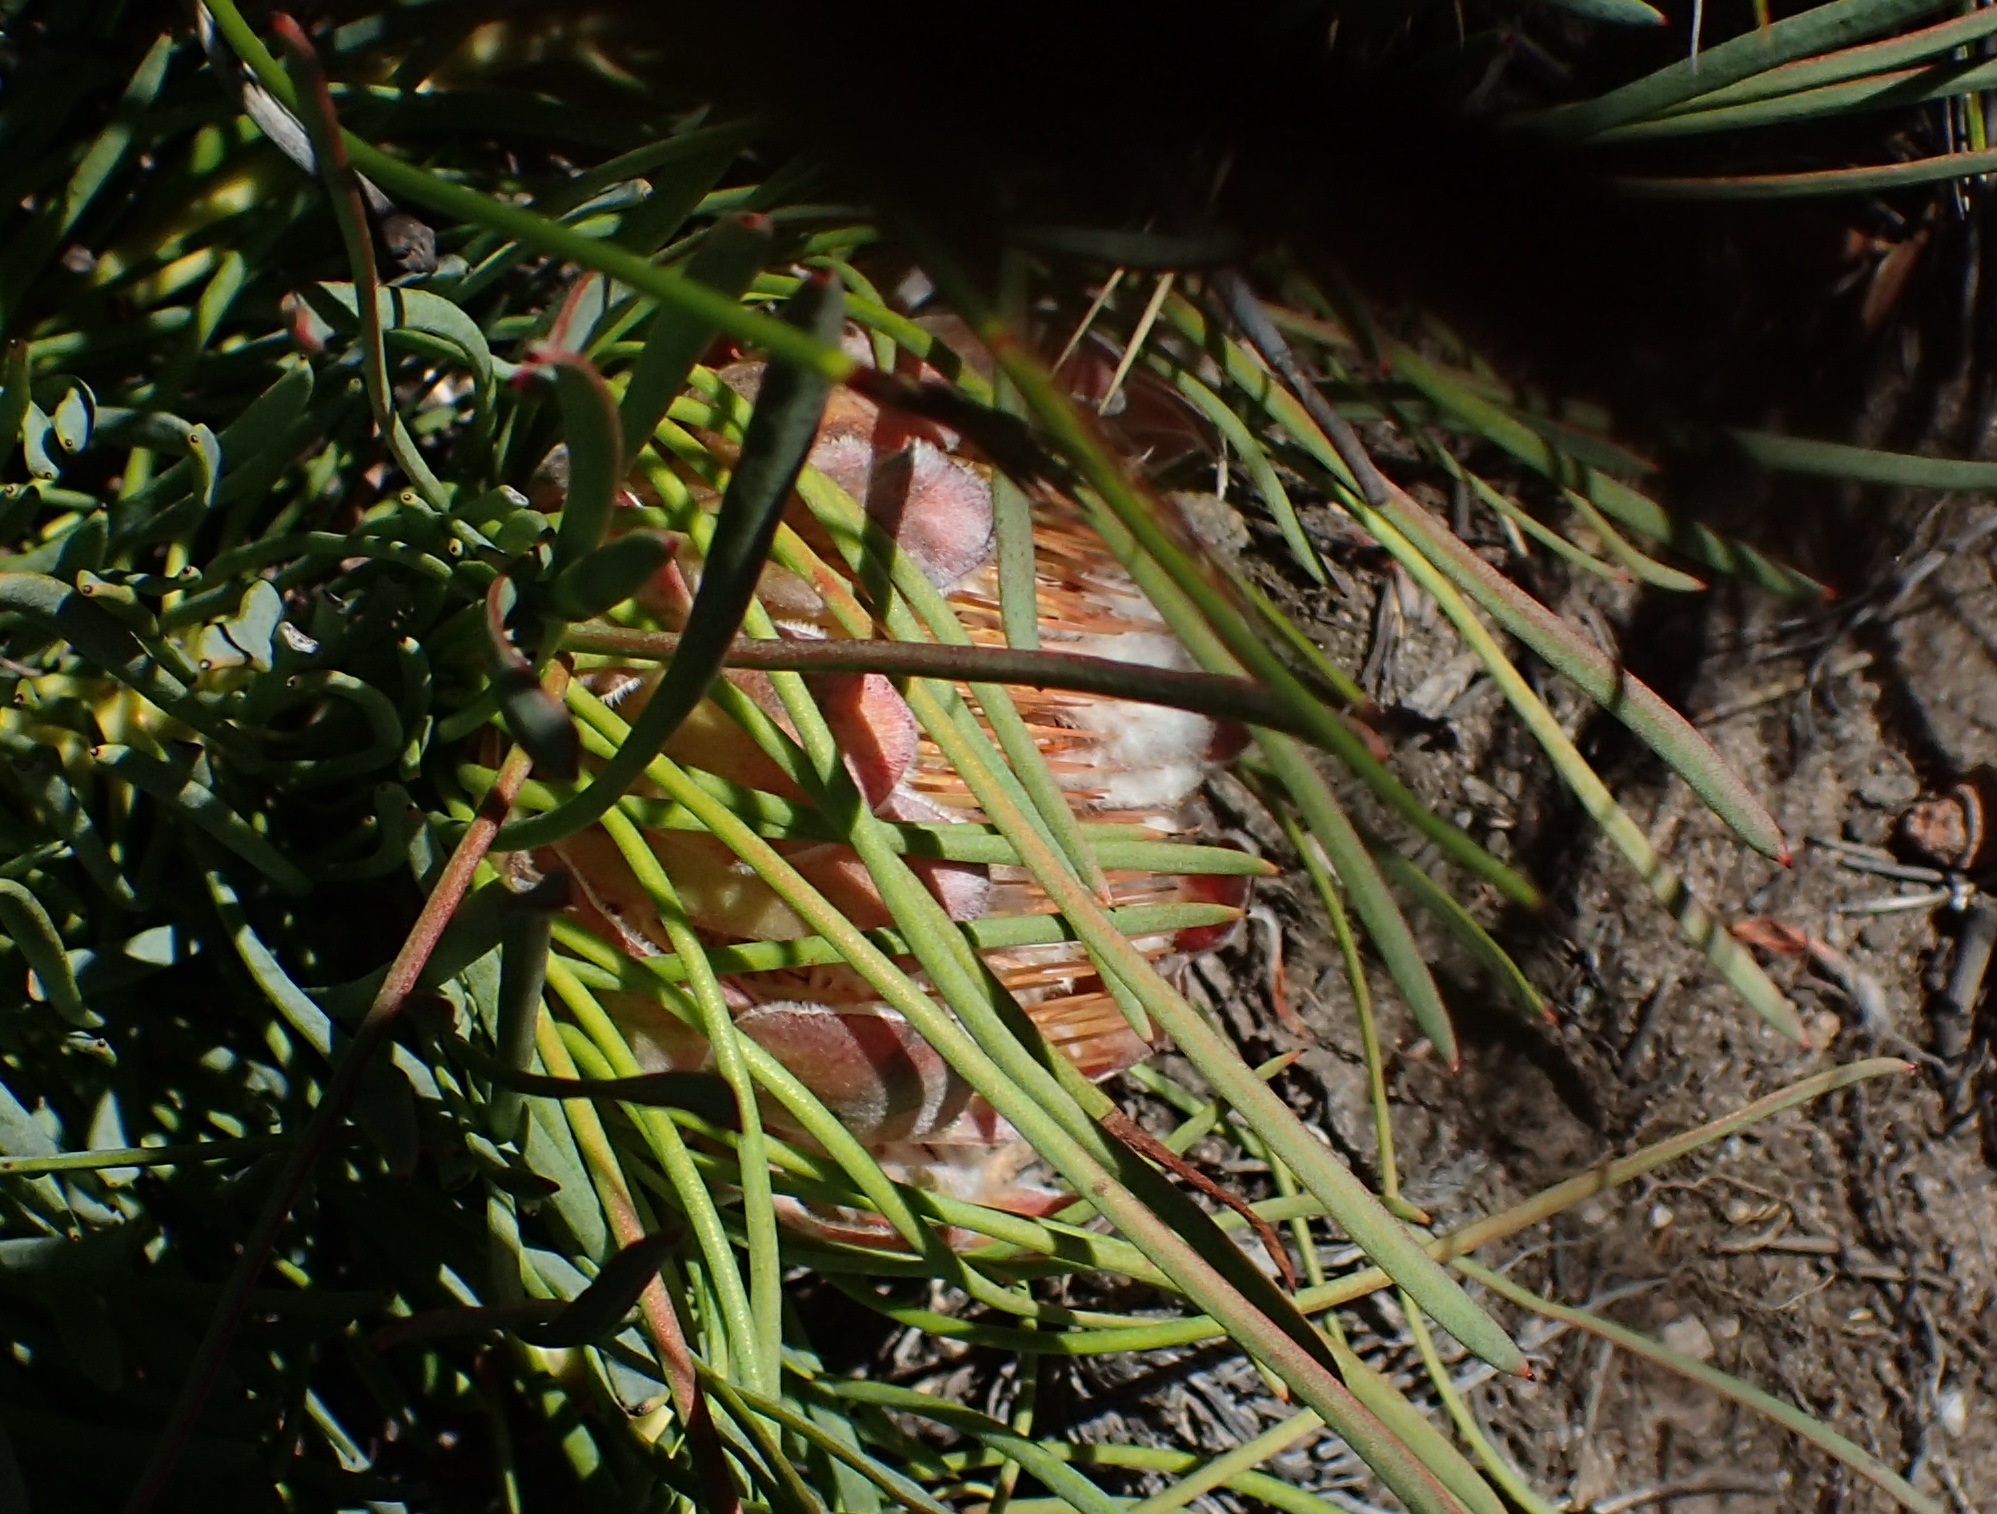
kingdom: Plantae
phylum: Tracheophyta
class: Magnoliopsida
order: Proteales
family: Proteaceae
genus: Protea
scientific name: Protea montana
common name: Swartberg sugarbush
